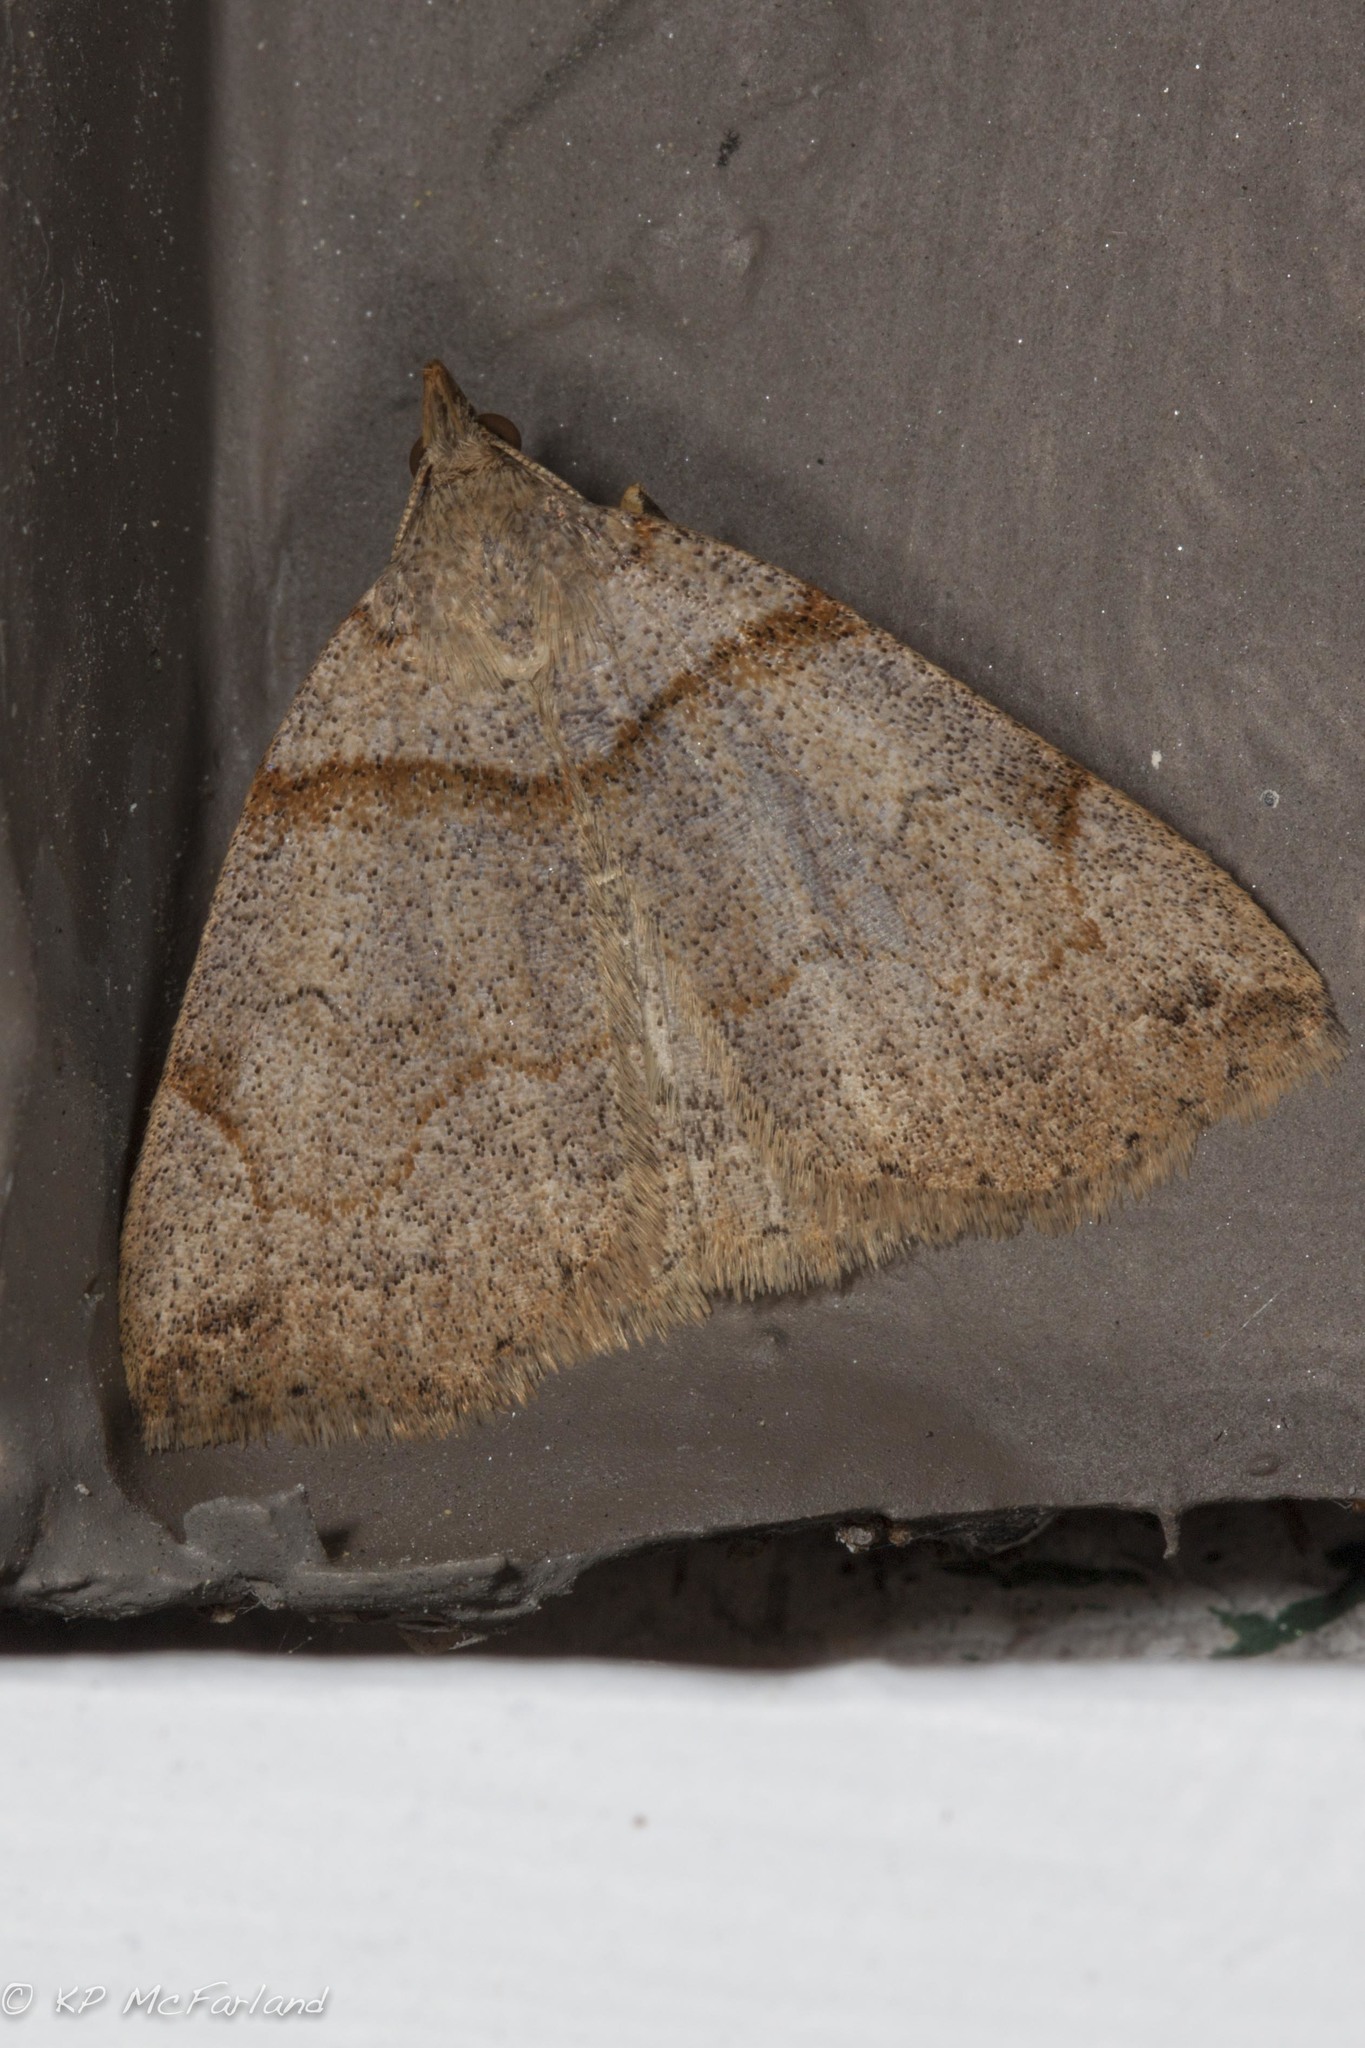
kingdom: Animalia
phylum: Arthropoda
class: Insecta
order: Lepidoptera
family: Erebidae
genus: Zanclognatha
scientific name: Zanclognatha laevigata
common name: Variable fan-foot
